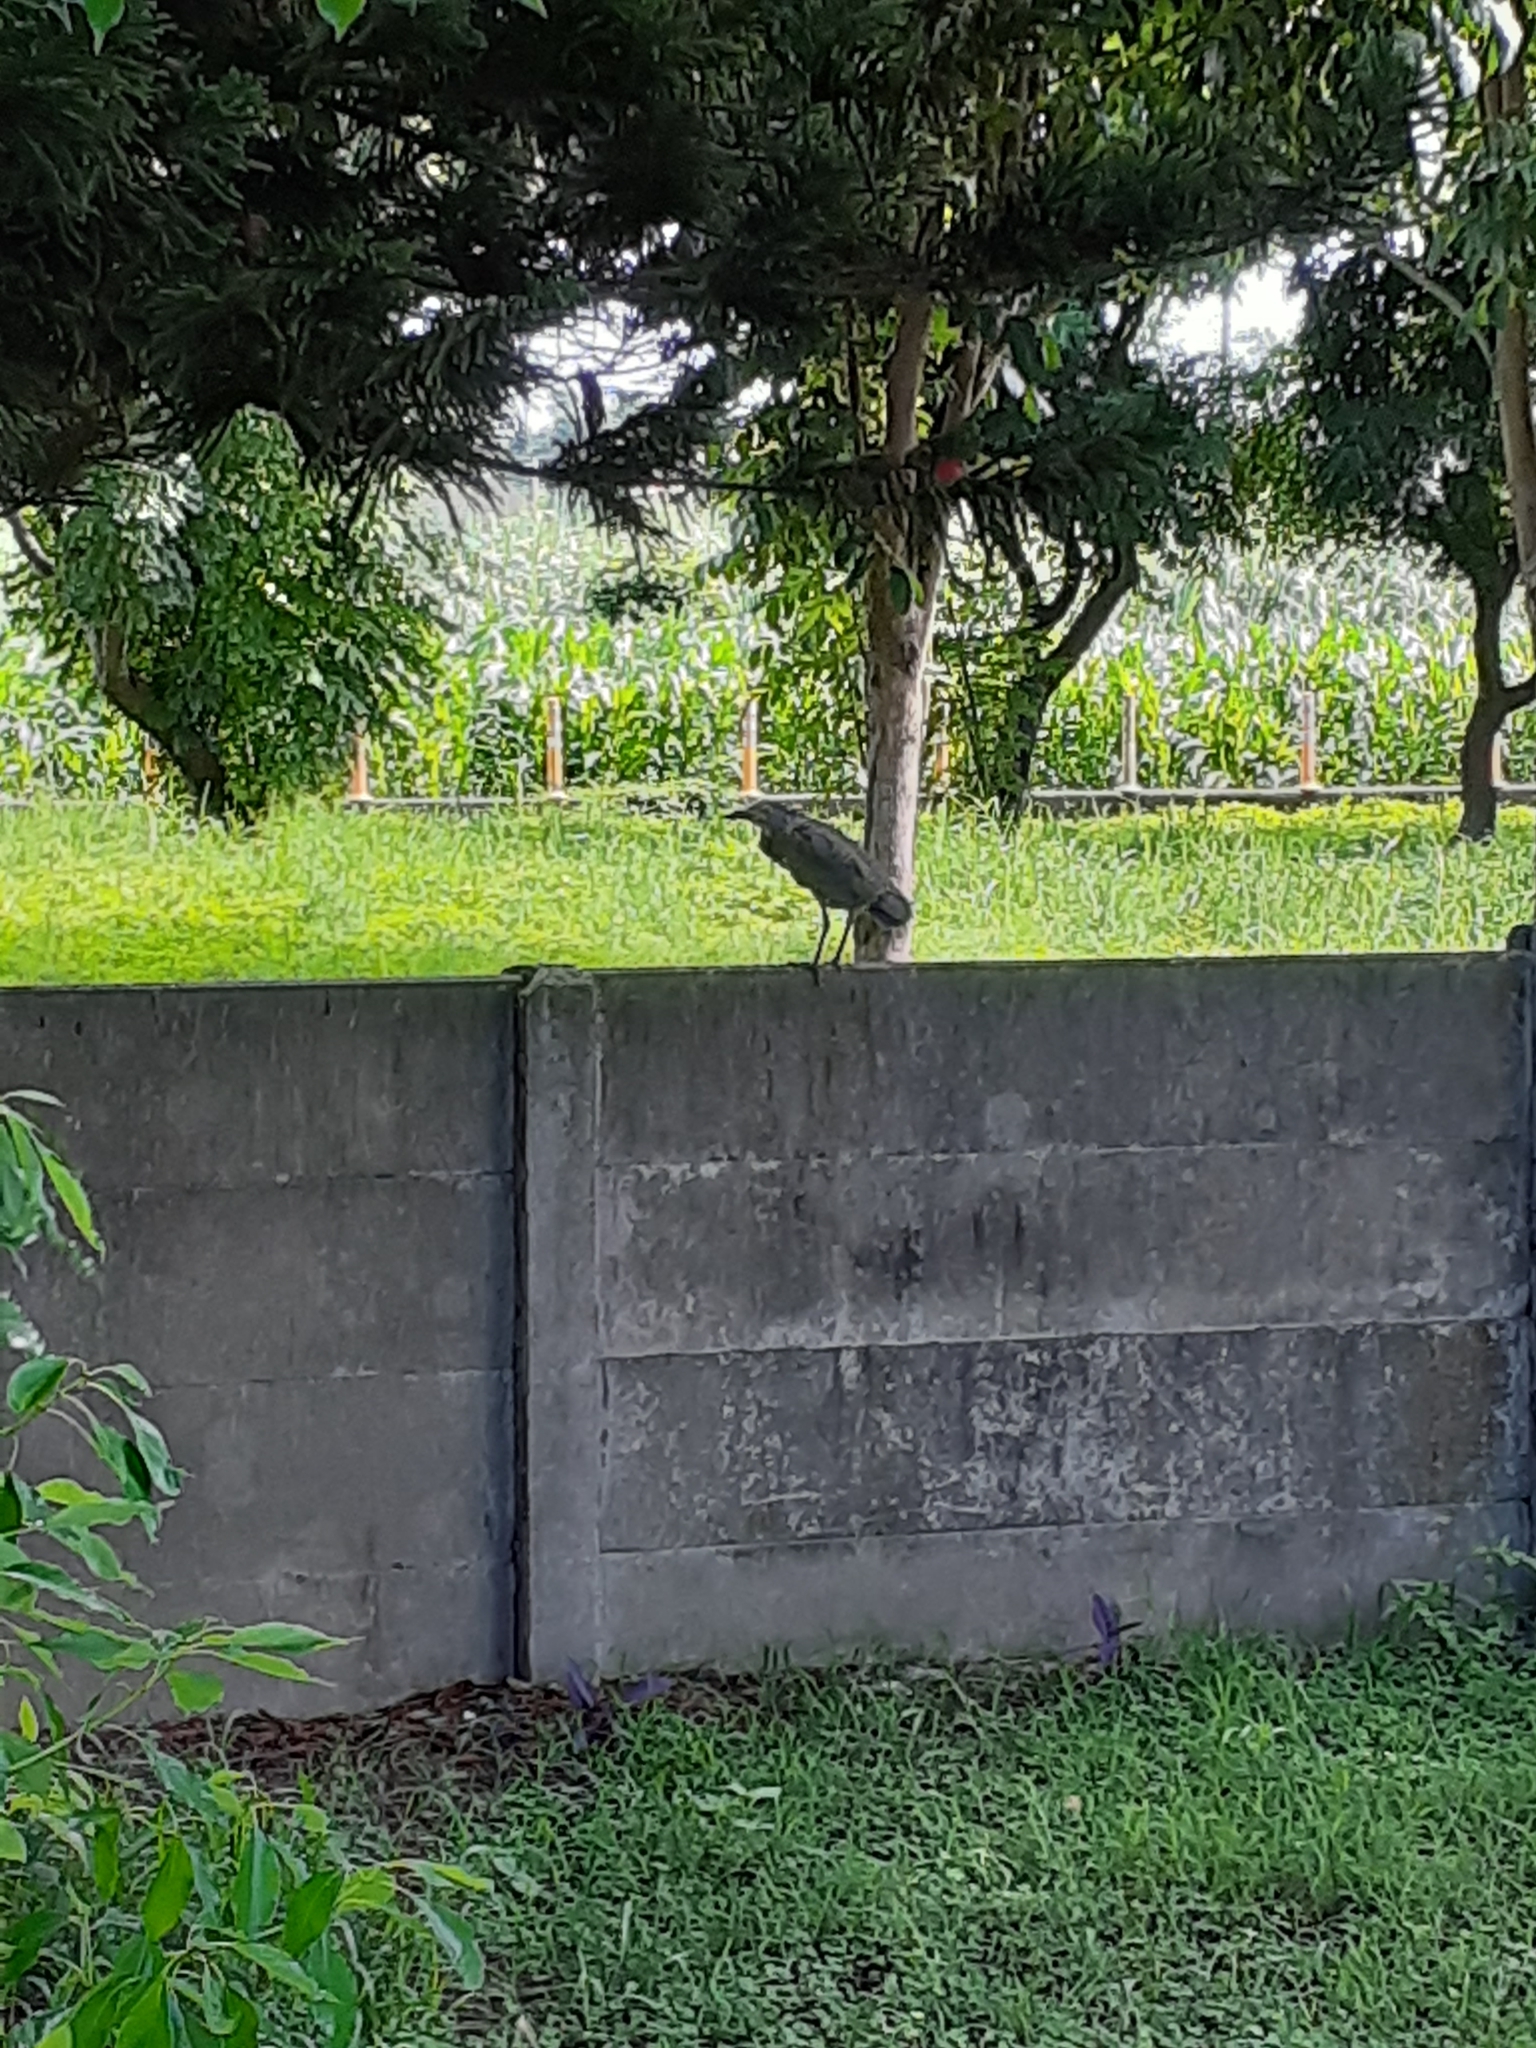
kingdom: Animalia
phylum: Chordata
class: Aves
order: Pelecaniformes
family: Ardeidae
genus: Gorsachius
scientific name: Gorsachius melanolophus
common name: Malayan night heron
